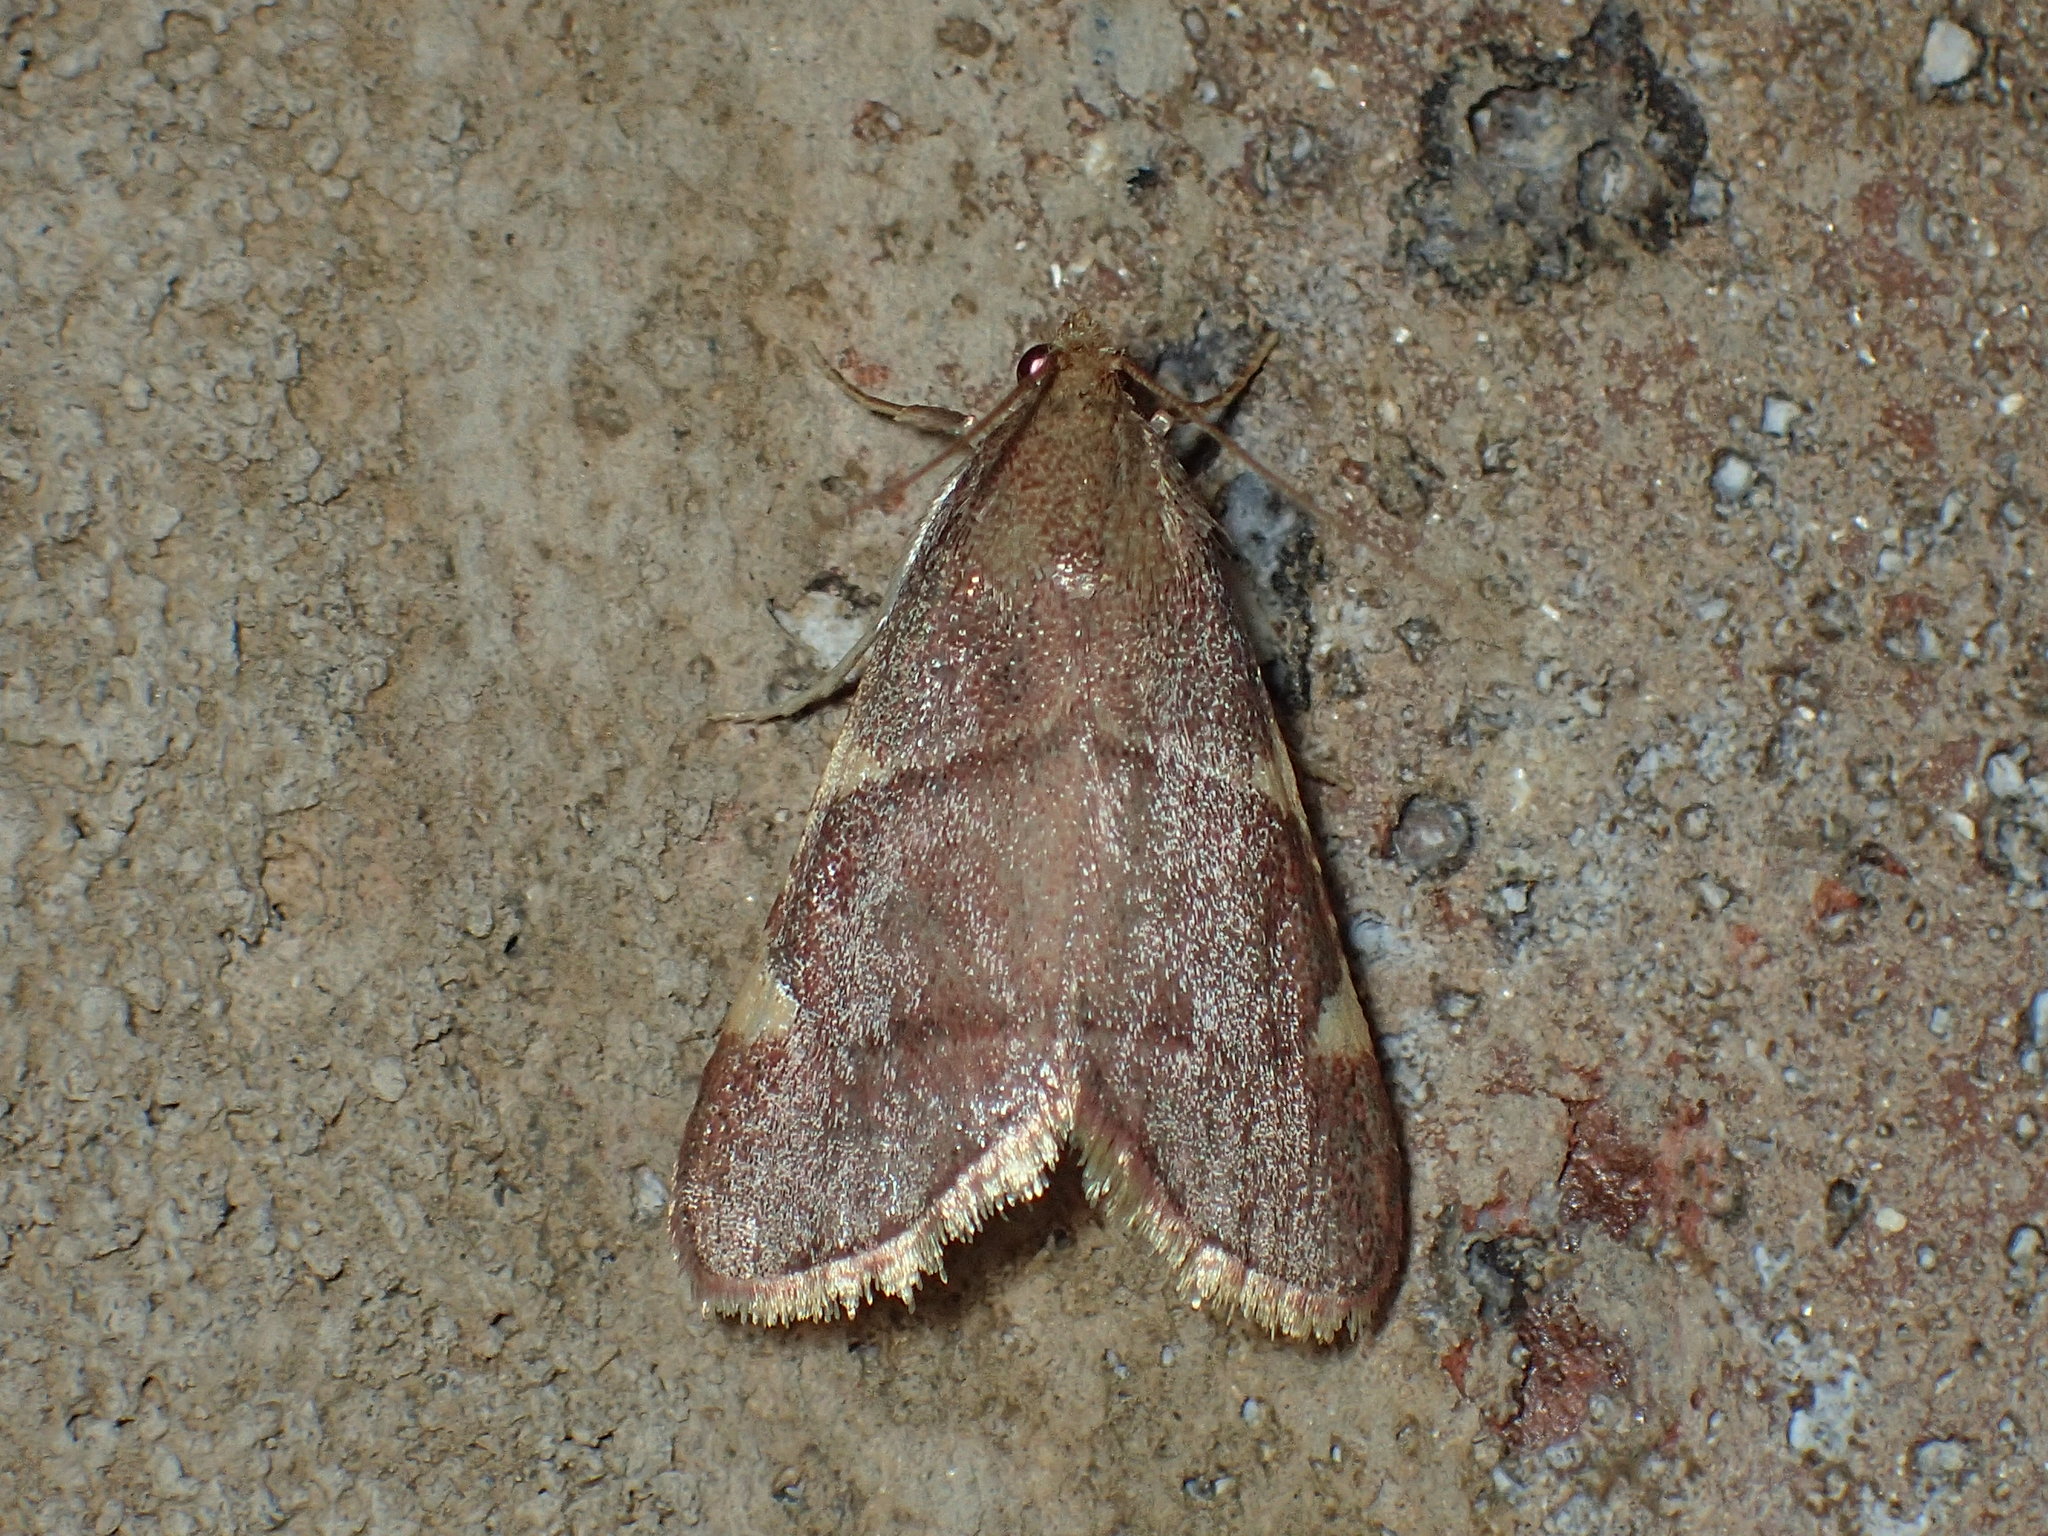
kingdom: Animalia
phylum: Arthropoda
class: Insecta
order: Lepidoptera
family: Pyralidae
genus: Hypsopygia
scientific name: Hypsopygia olinalis
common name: Yellow-fringed dolichomia moth
